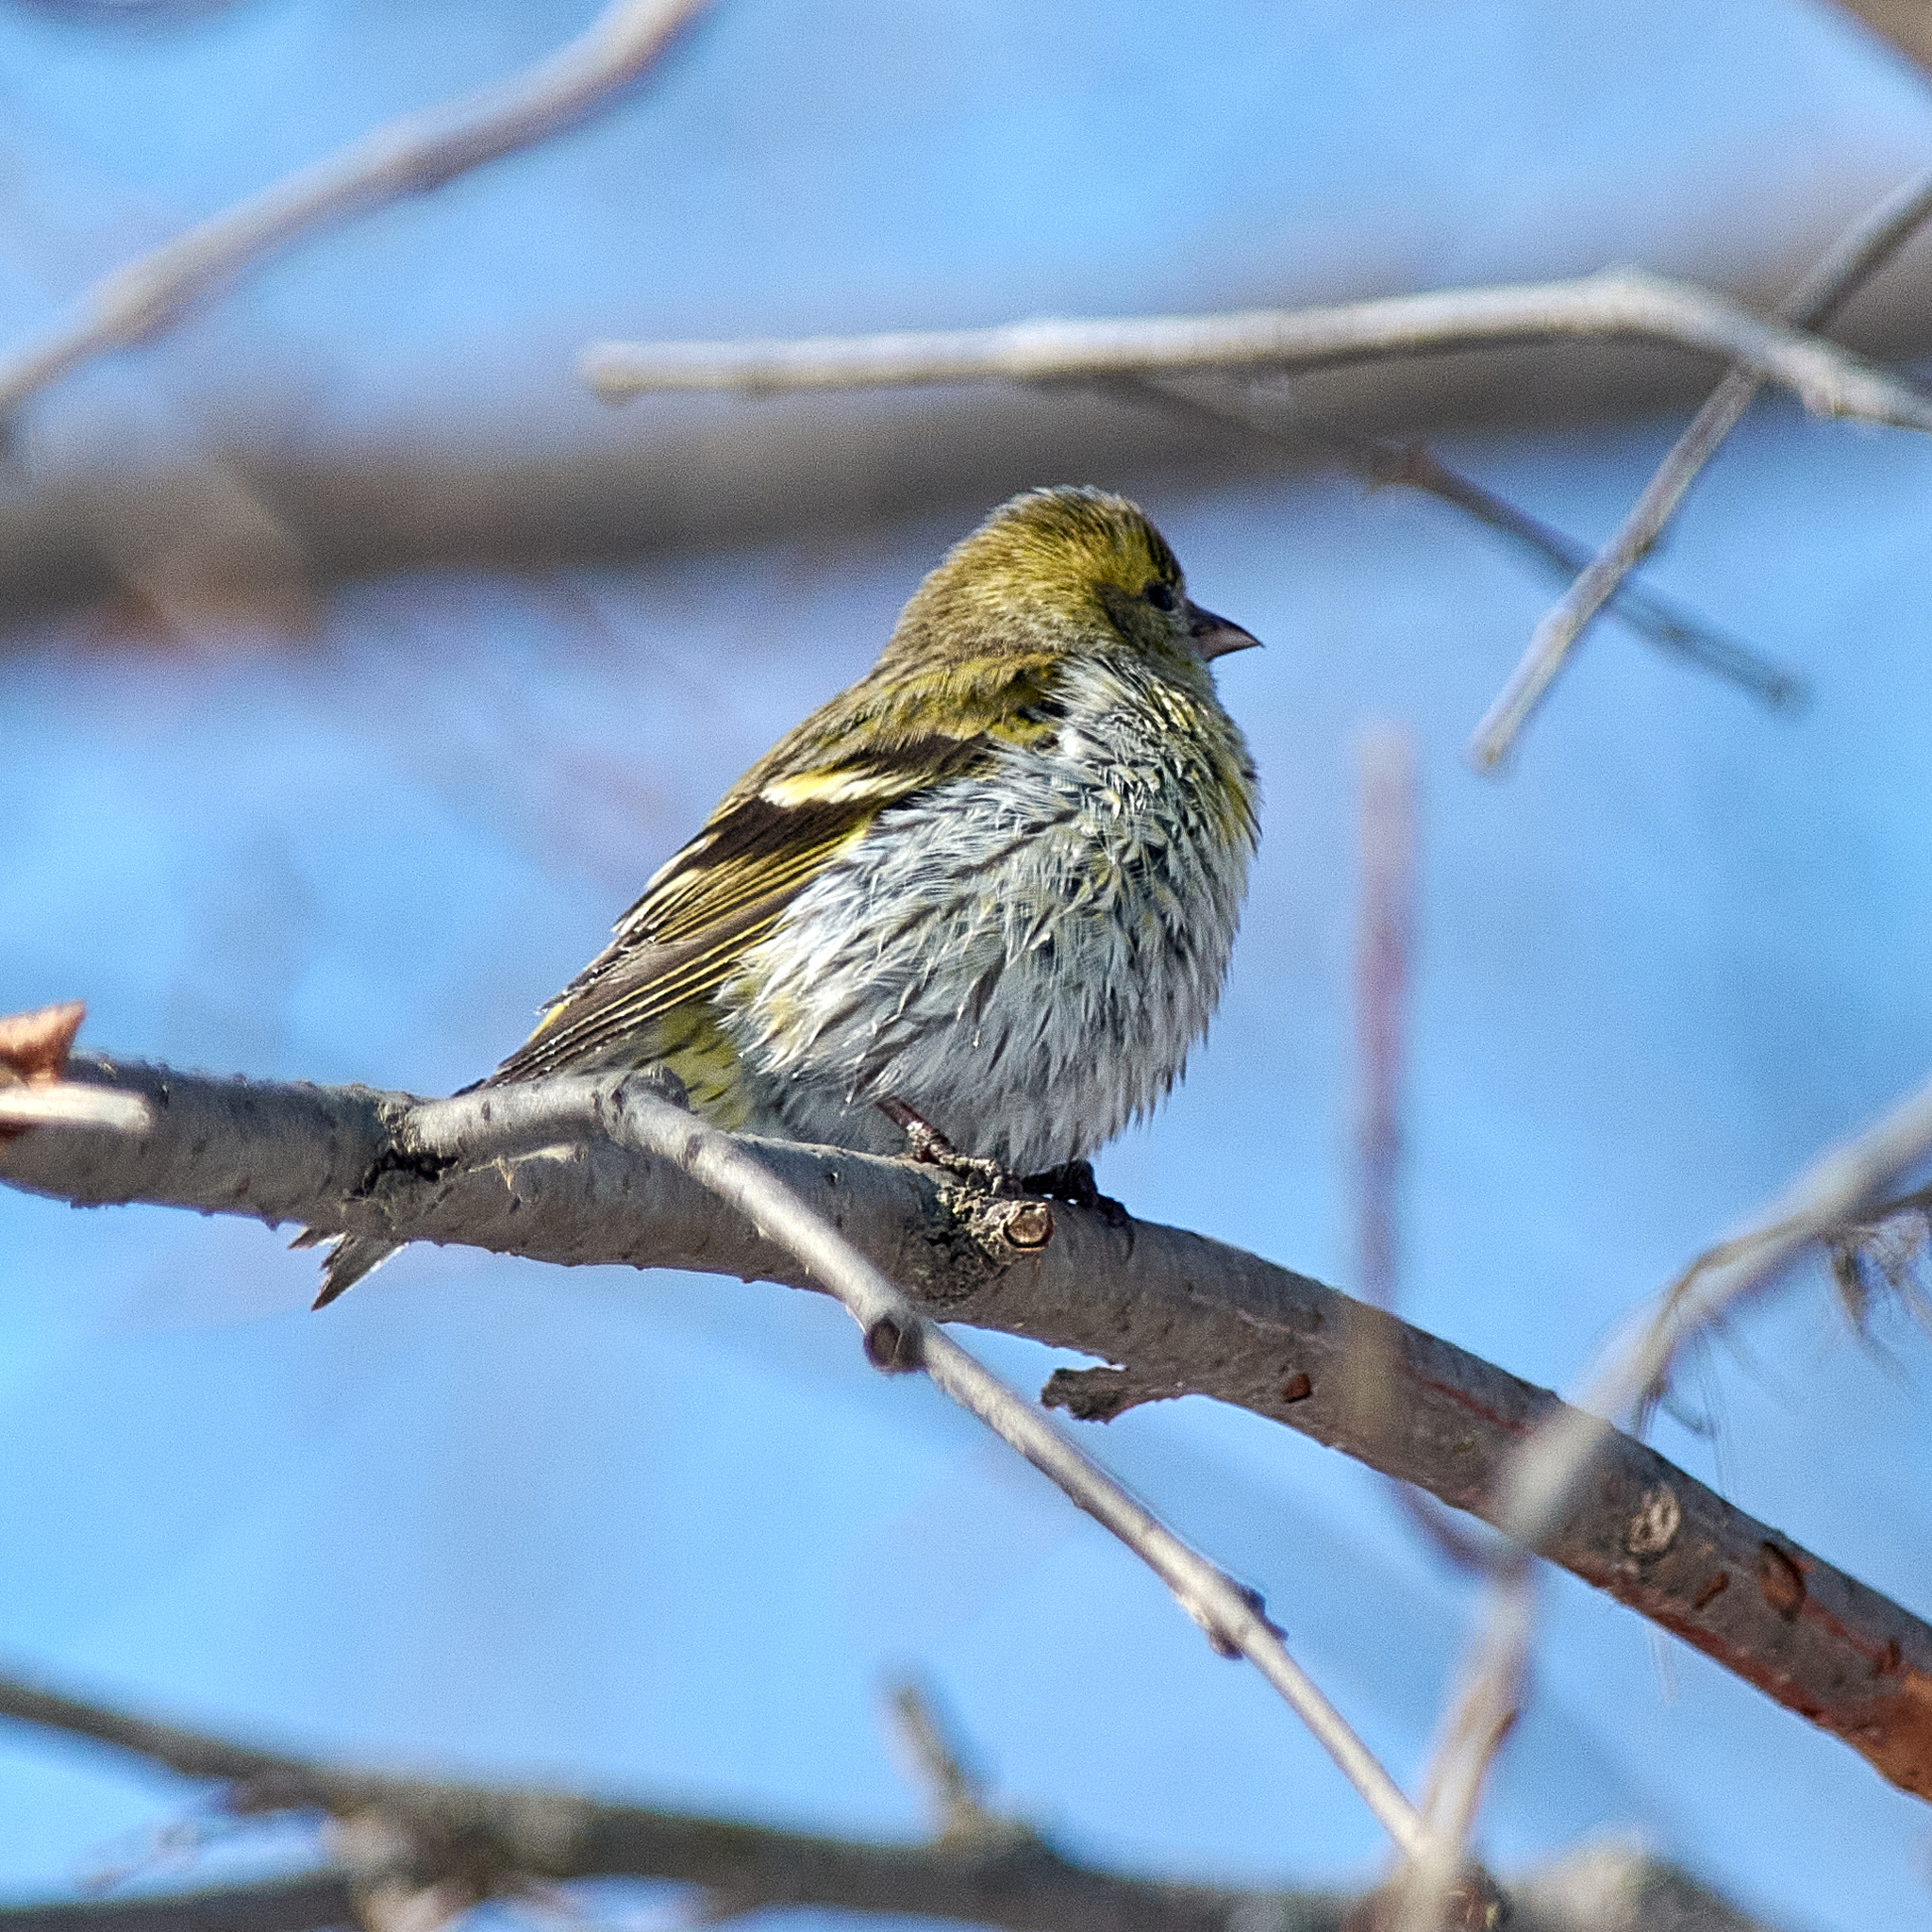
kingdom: Animalia
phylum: Chordata
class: Aves
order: Passeriformes
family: Fringillidae
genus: Spinus
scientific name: Spinus spinus
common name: Eurasian siskin
